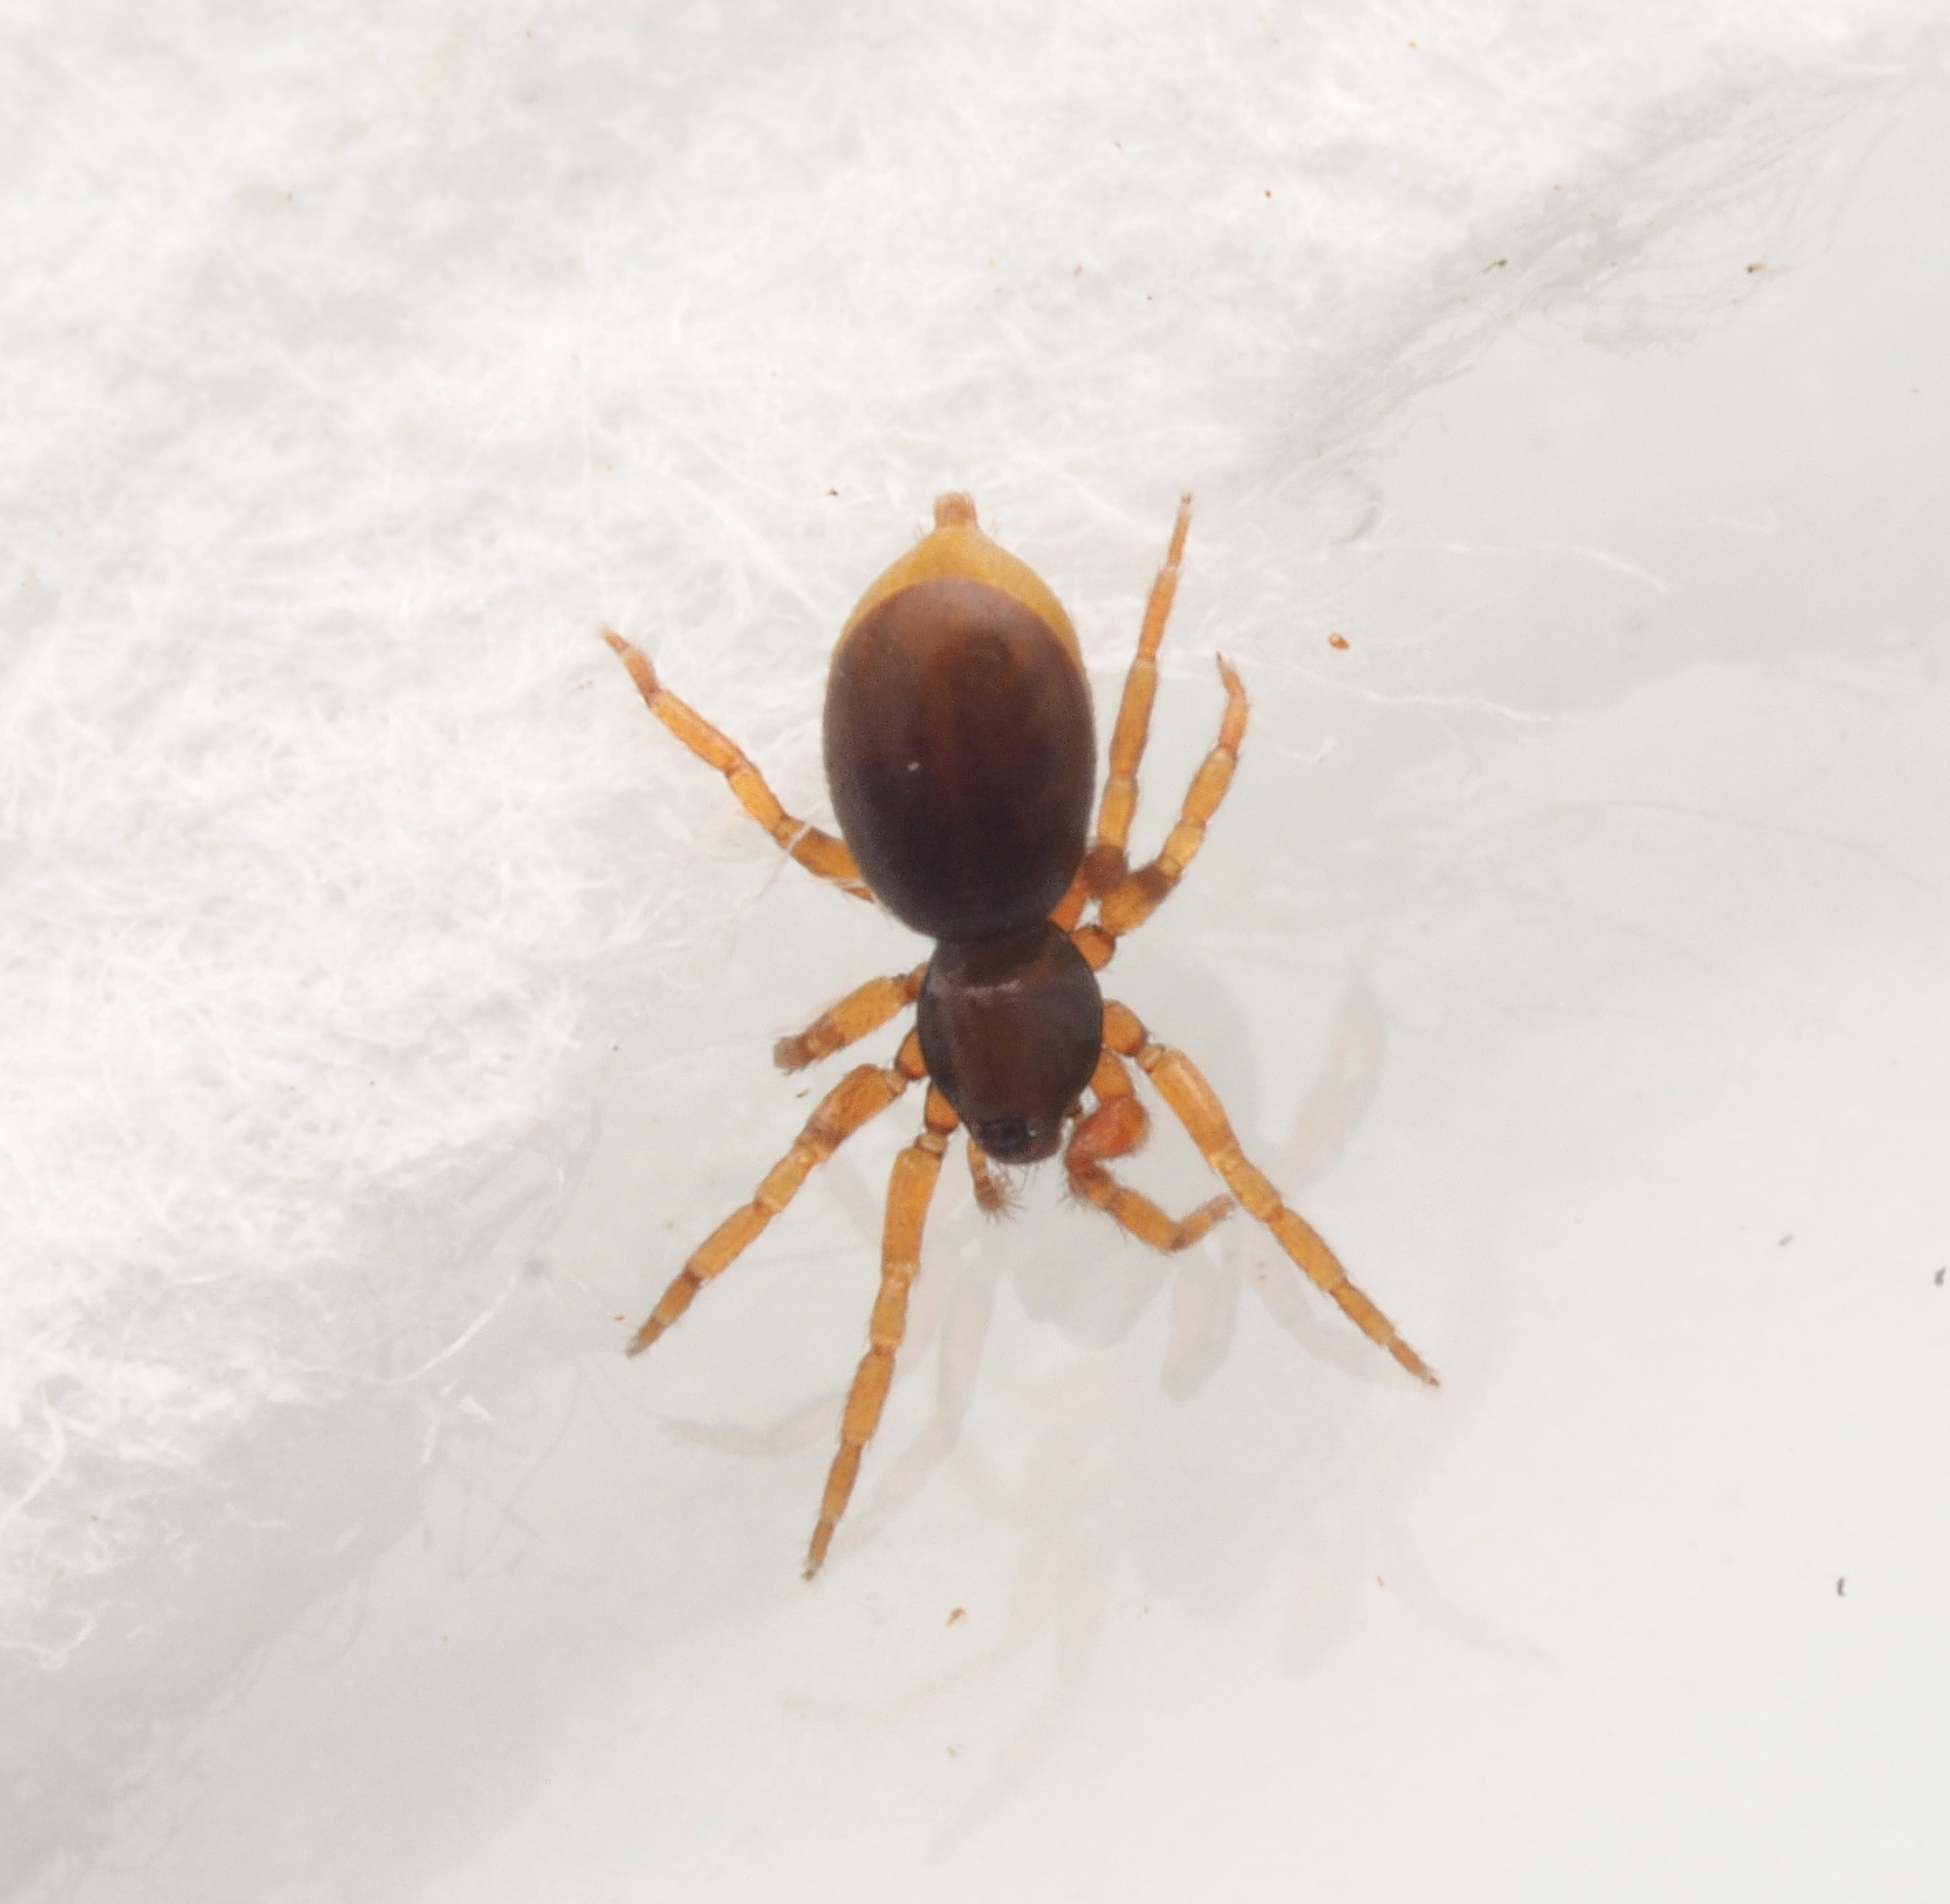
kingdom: Animalia
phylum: Arthropoda
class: Arachnida
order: Araneae
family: Oonopidae
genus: Opopaea
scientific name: Opopaea
